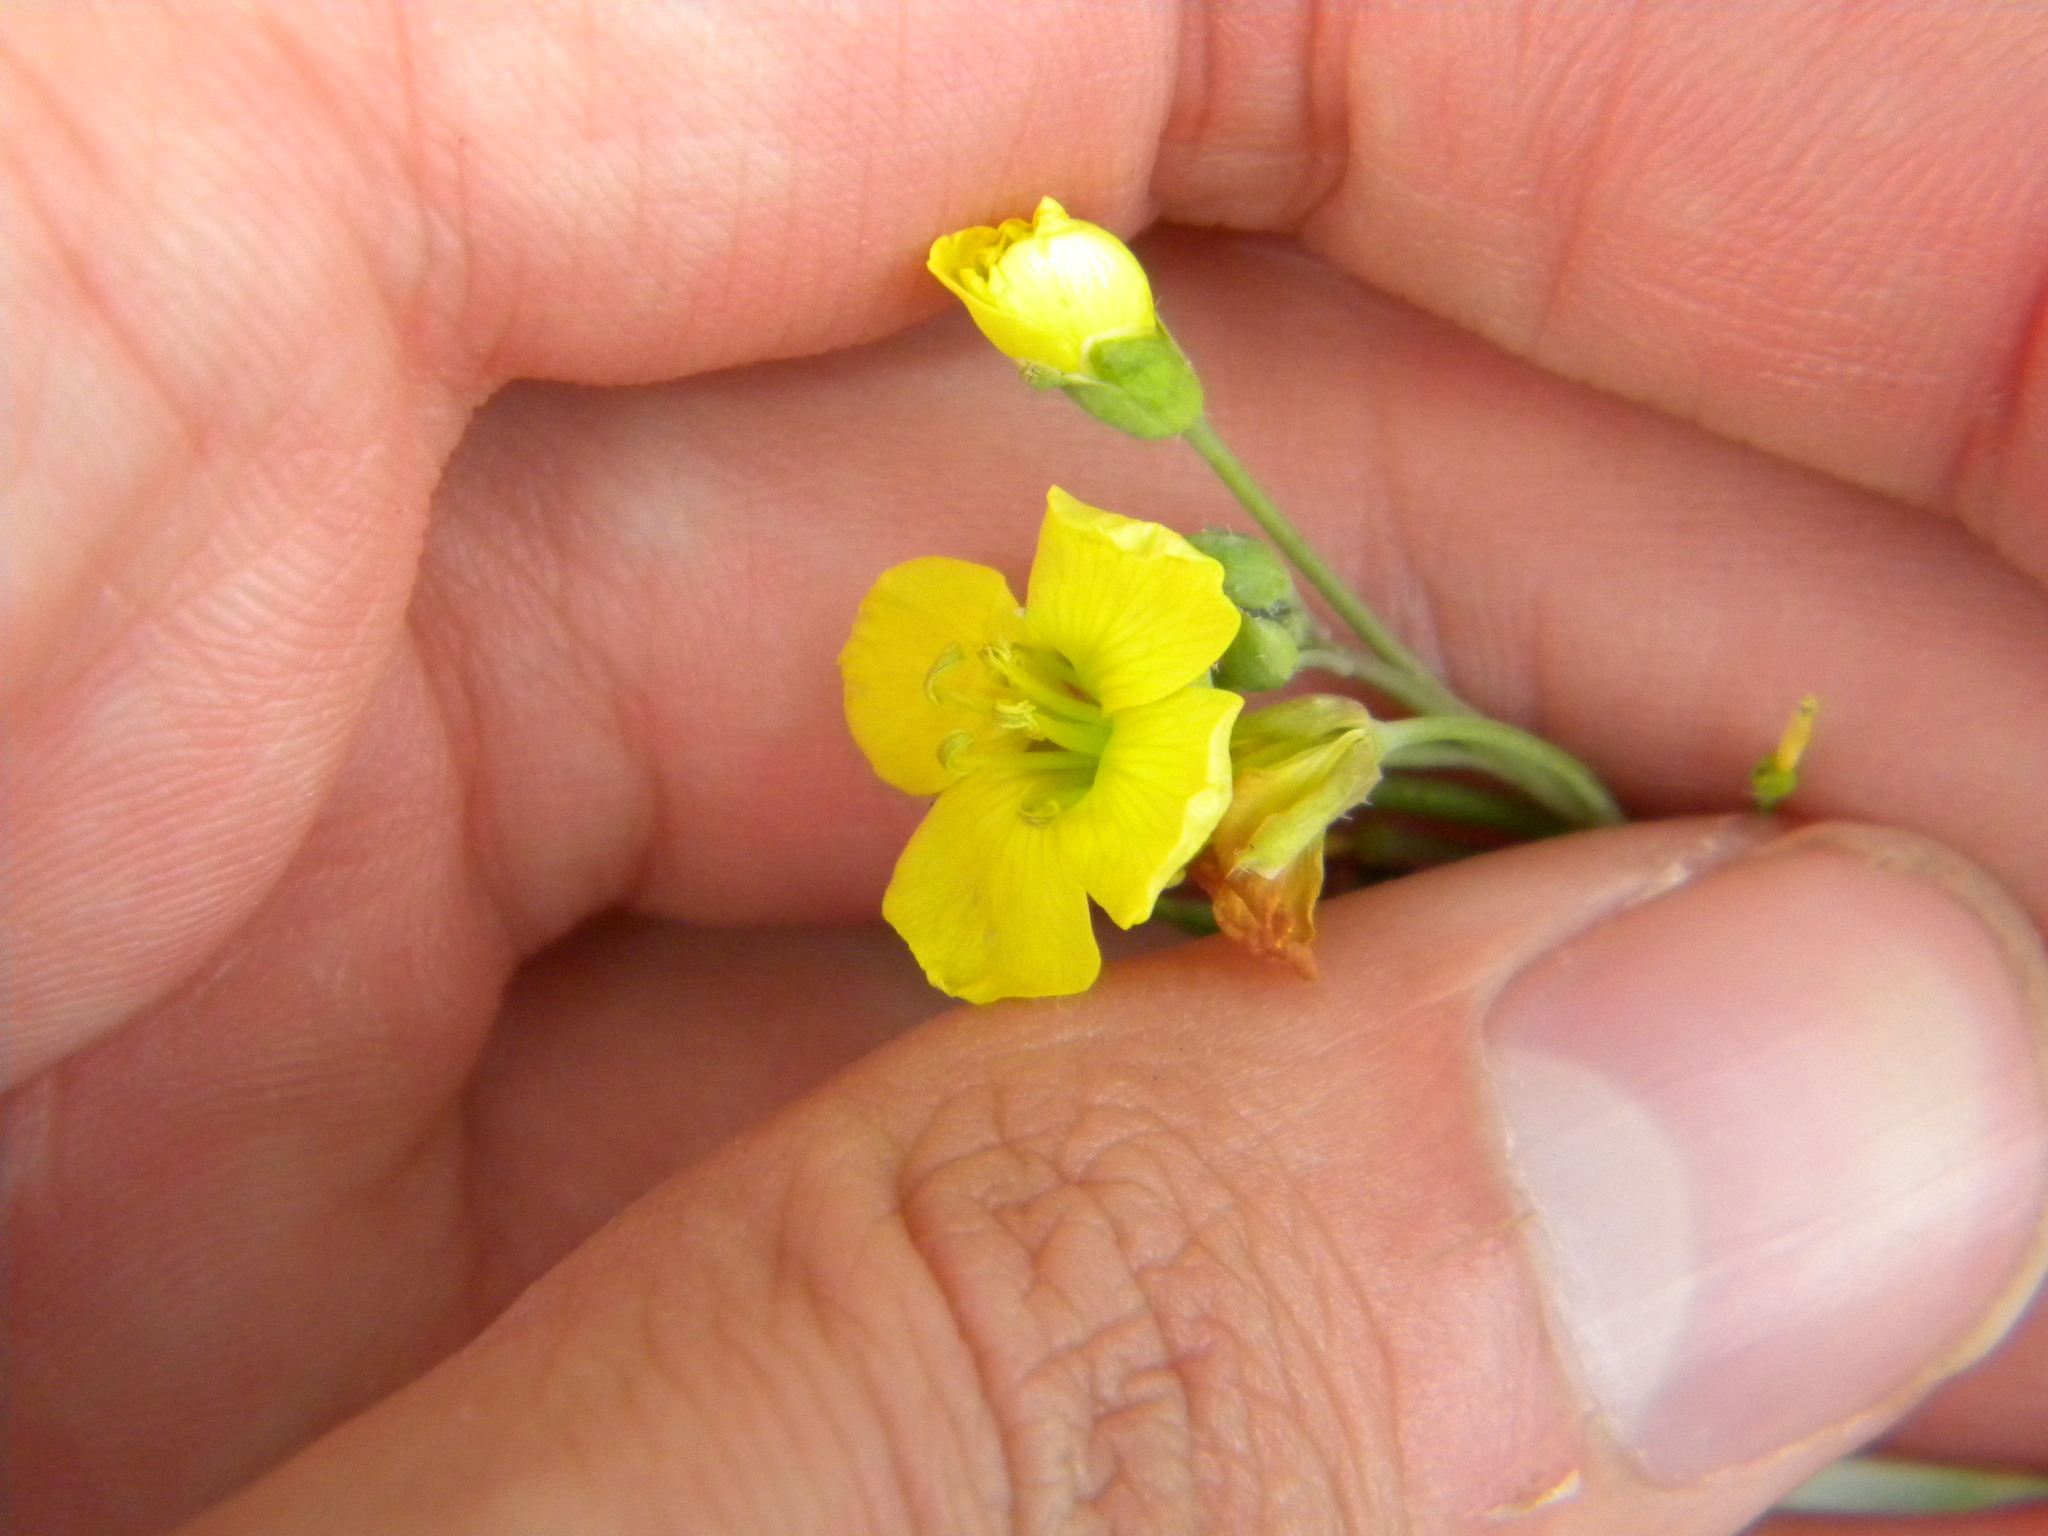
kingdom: Plantae
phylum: Tracheophyta
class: Magnoliopsida
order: Brassicales
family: Brassicaceae
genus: Diplotaxis
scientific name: Diplotaxis tenuifolia
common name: Perennial wall-rocket
